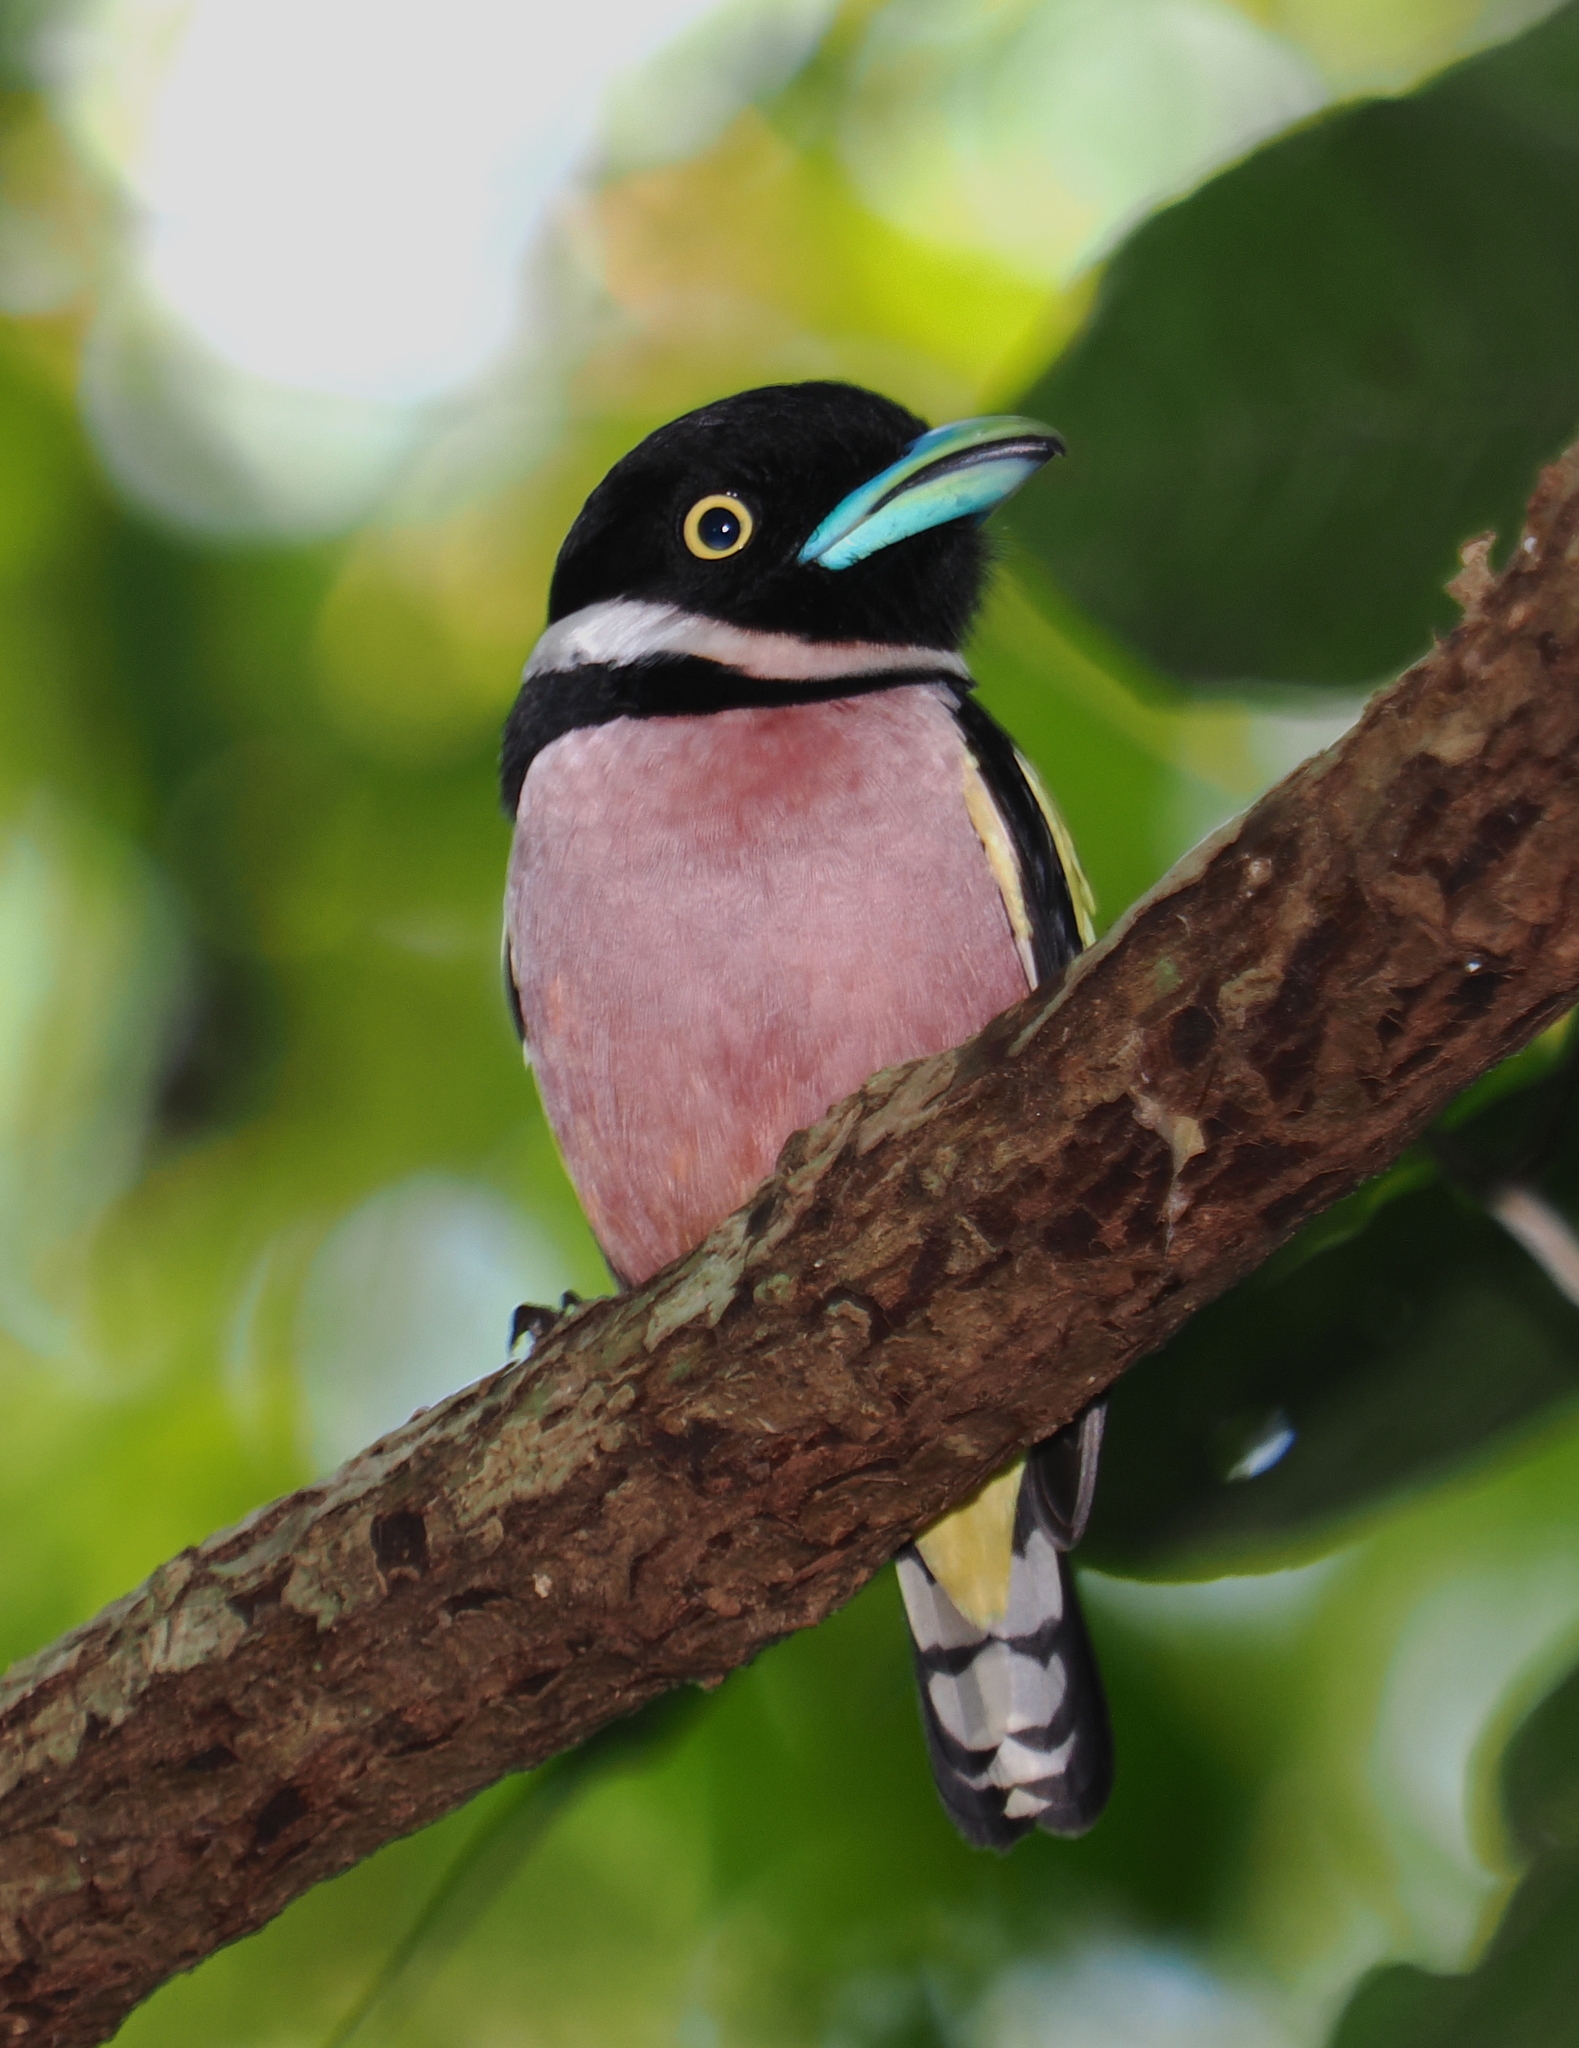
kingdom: Animalia
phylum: Chordata
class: Aves
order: Passeriformes
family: Eurylaimidae
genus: Eurylaimus
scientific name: Eurylaimus ochromalus
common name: Black-and-yellow broadbill
